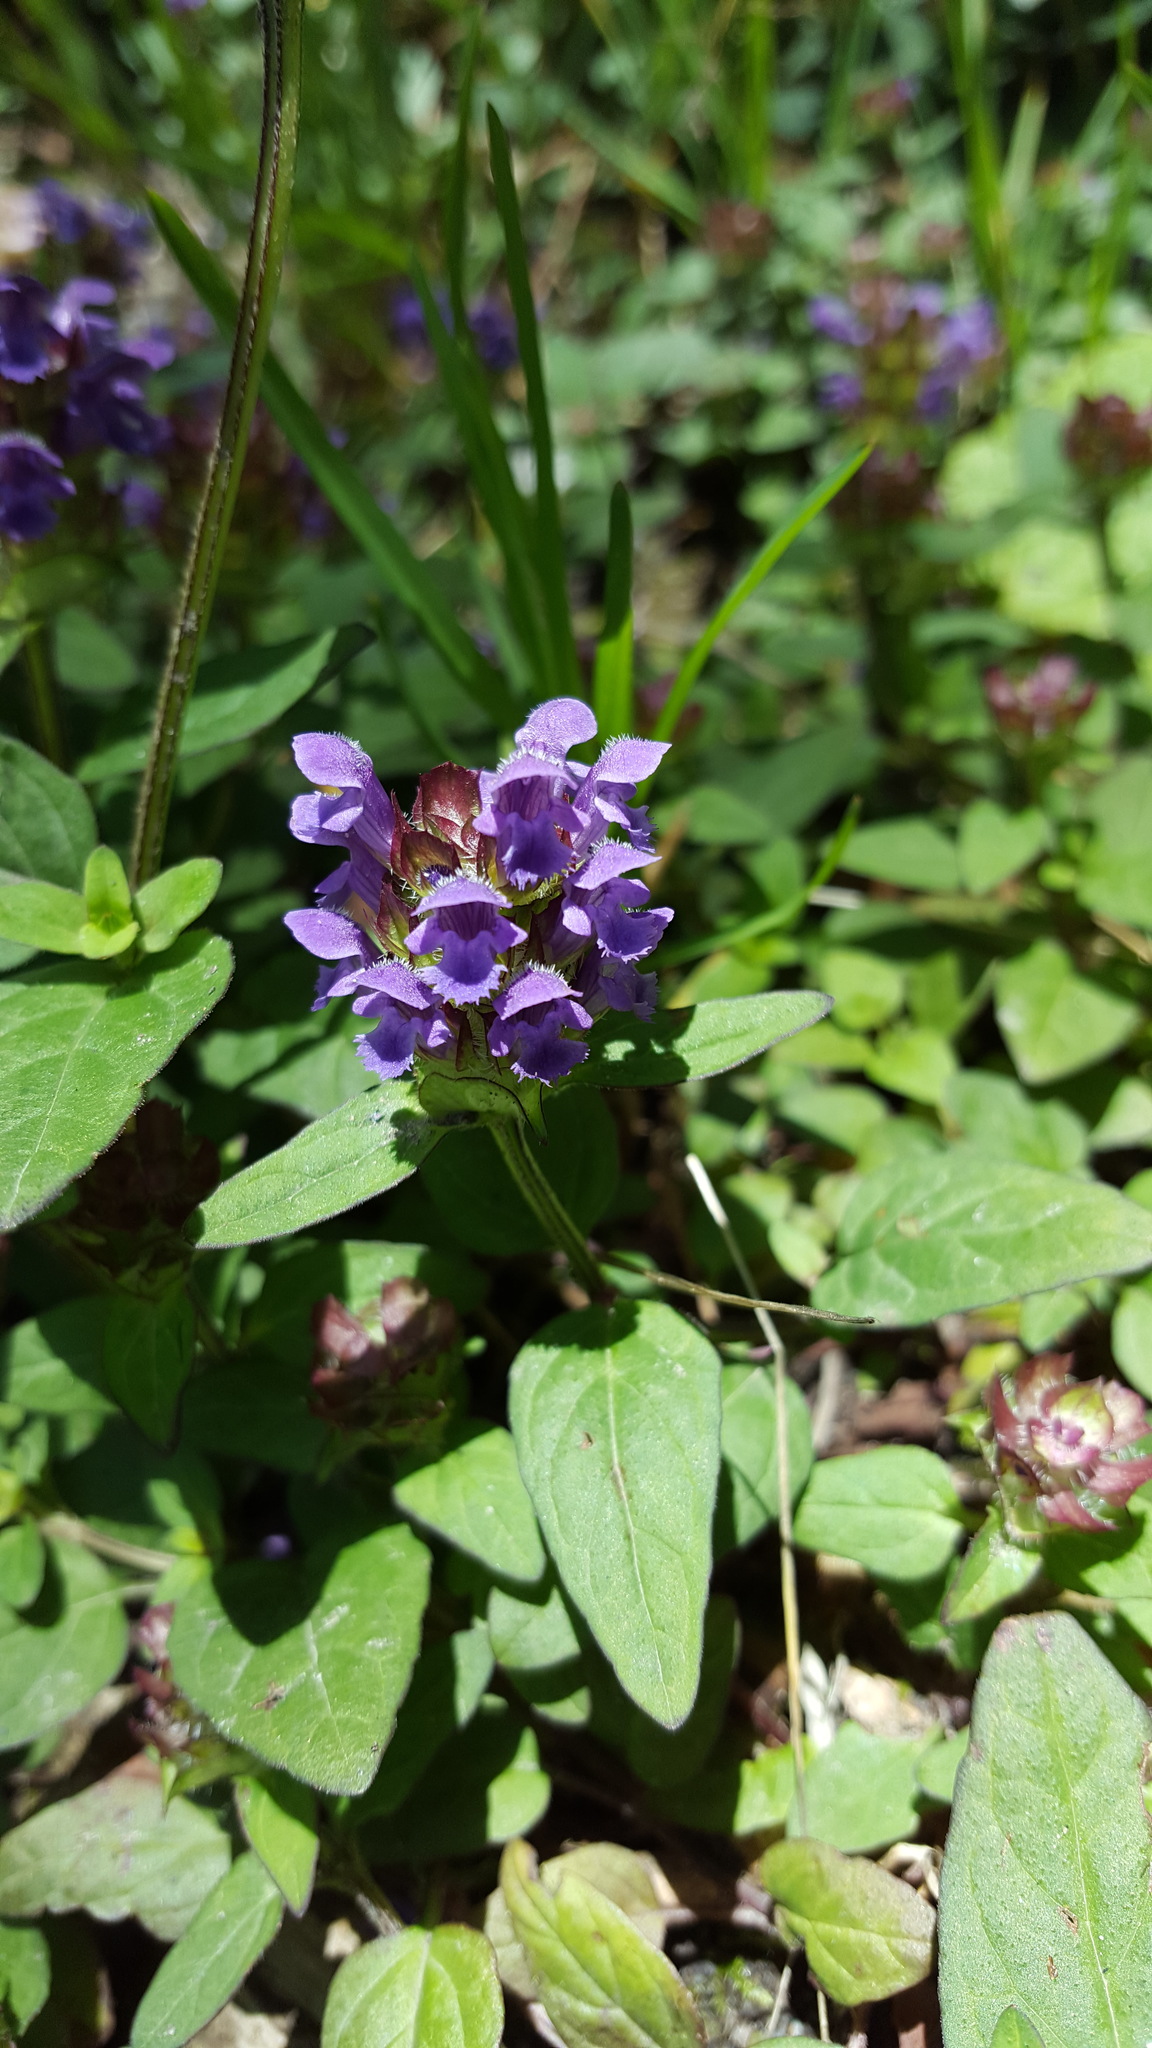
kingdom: Plantae
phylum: Tracheophyta
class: Magnoliopsida
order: Lamiales
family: Lamiaceae
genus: Prunella
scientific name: Prunella vulgaris
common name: Heal-all
